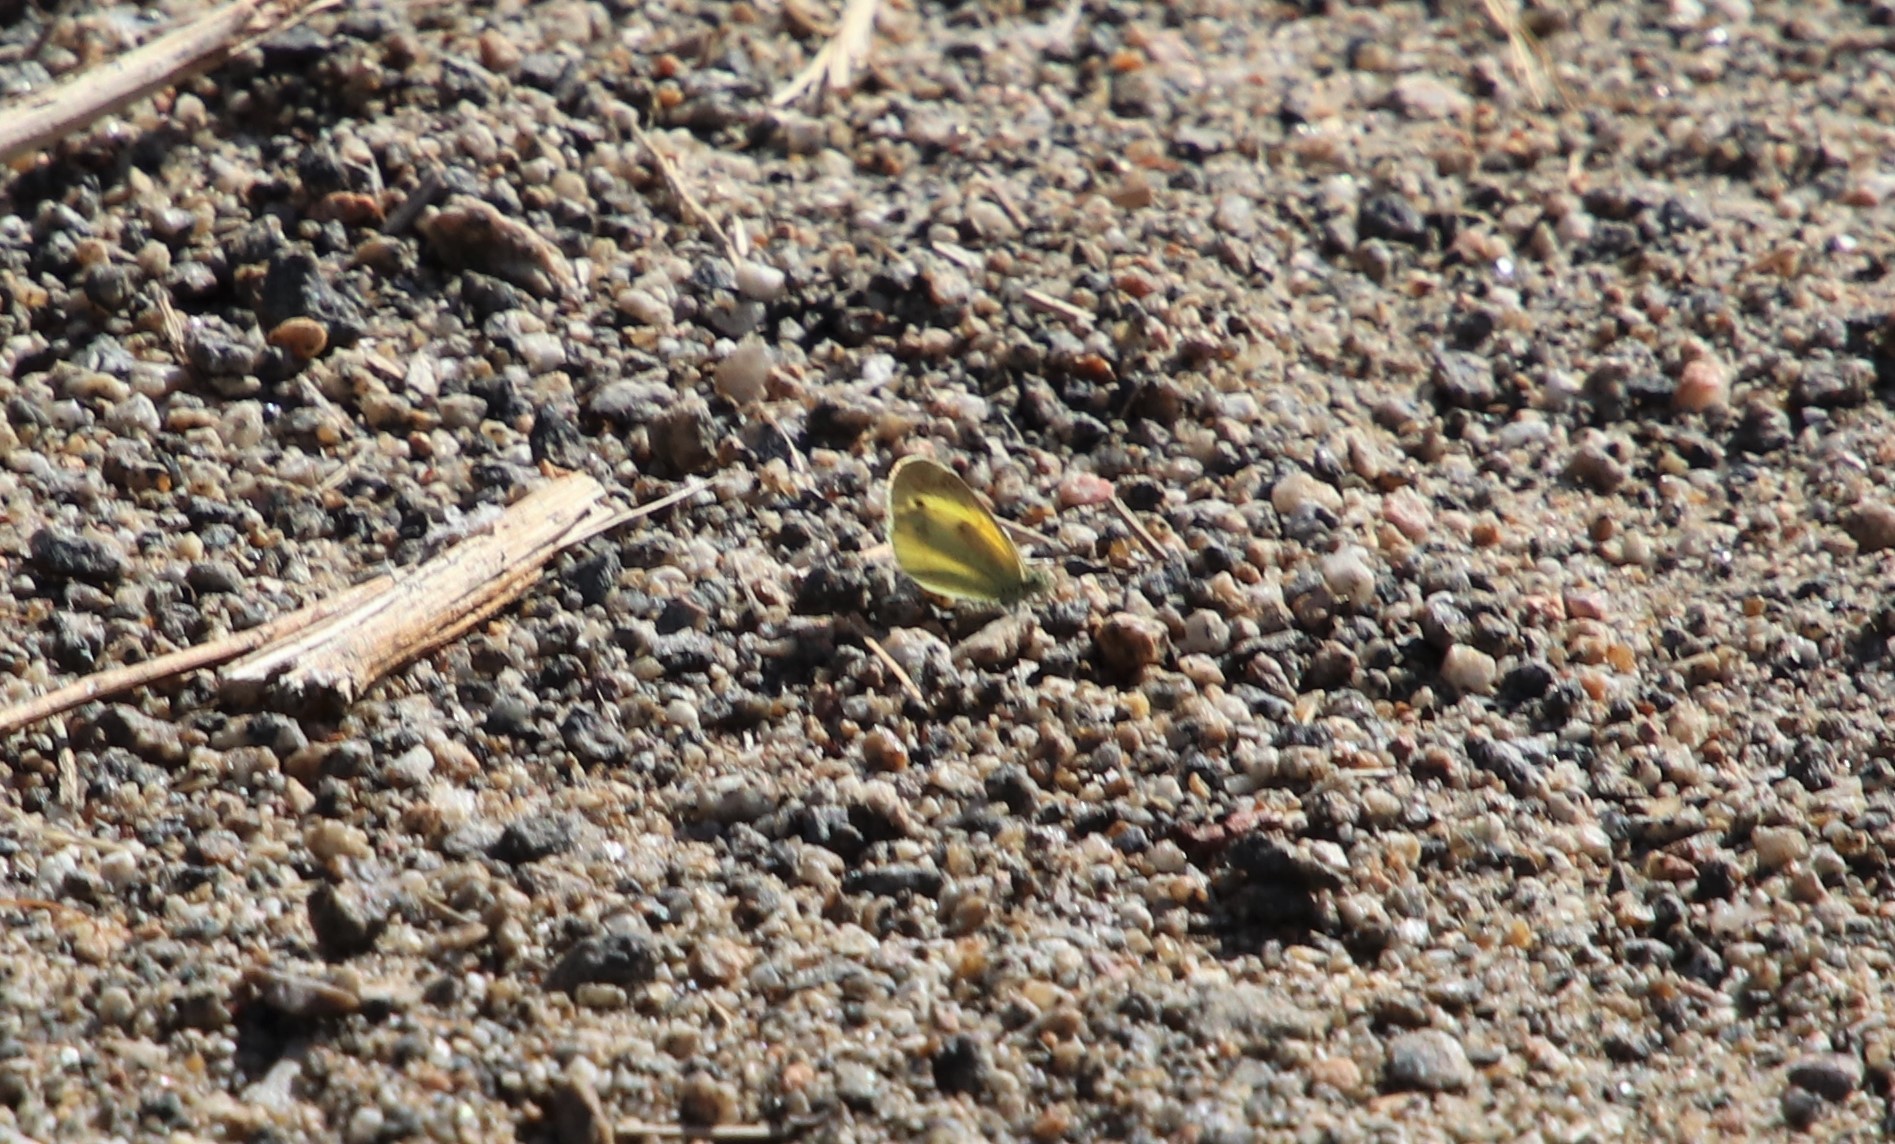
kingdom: Animalia
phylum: Arthropoda
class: Insecta
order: Lepidoptera
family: Pieridae
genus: Nathalis
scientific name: Nathalis iole
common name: Dainty sulphur
